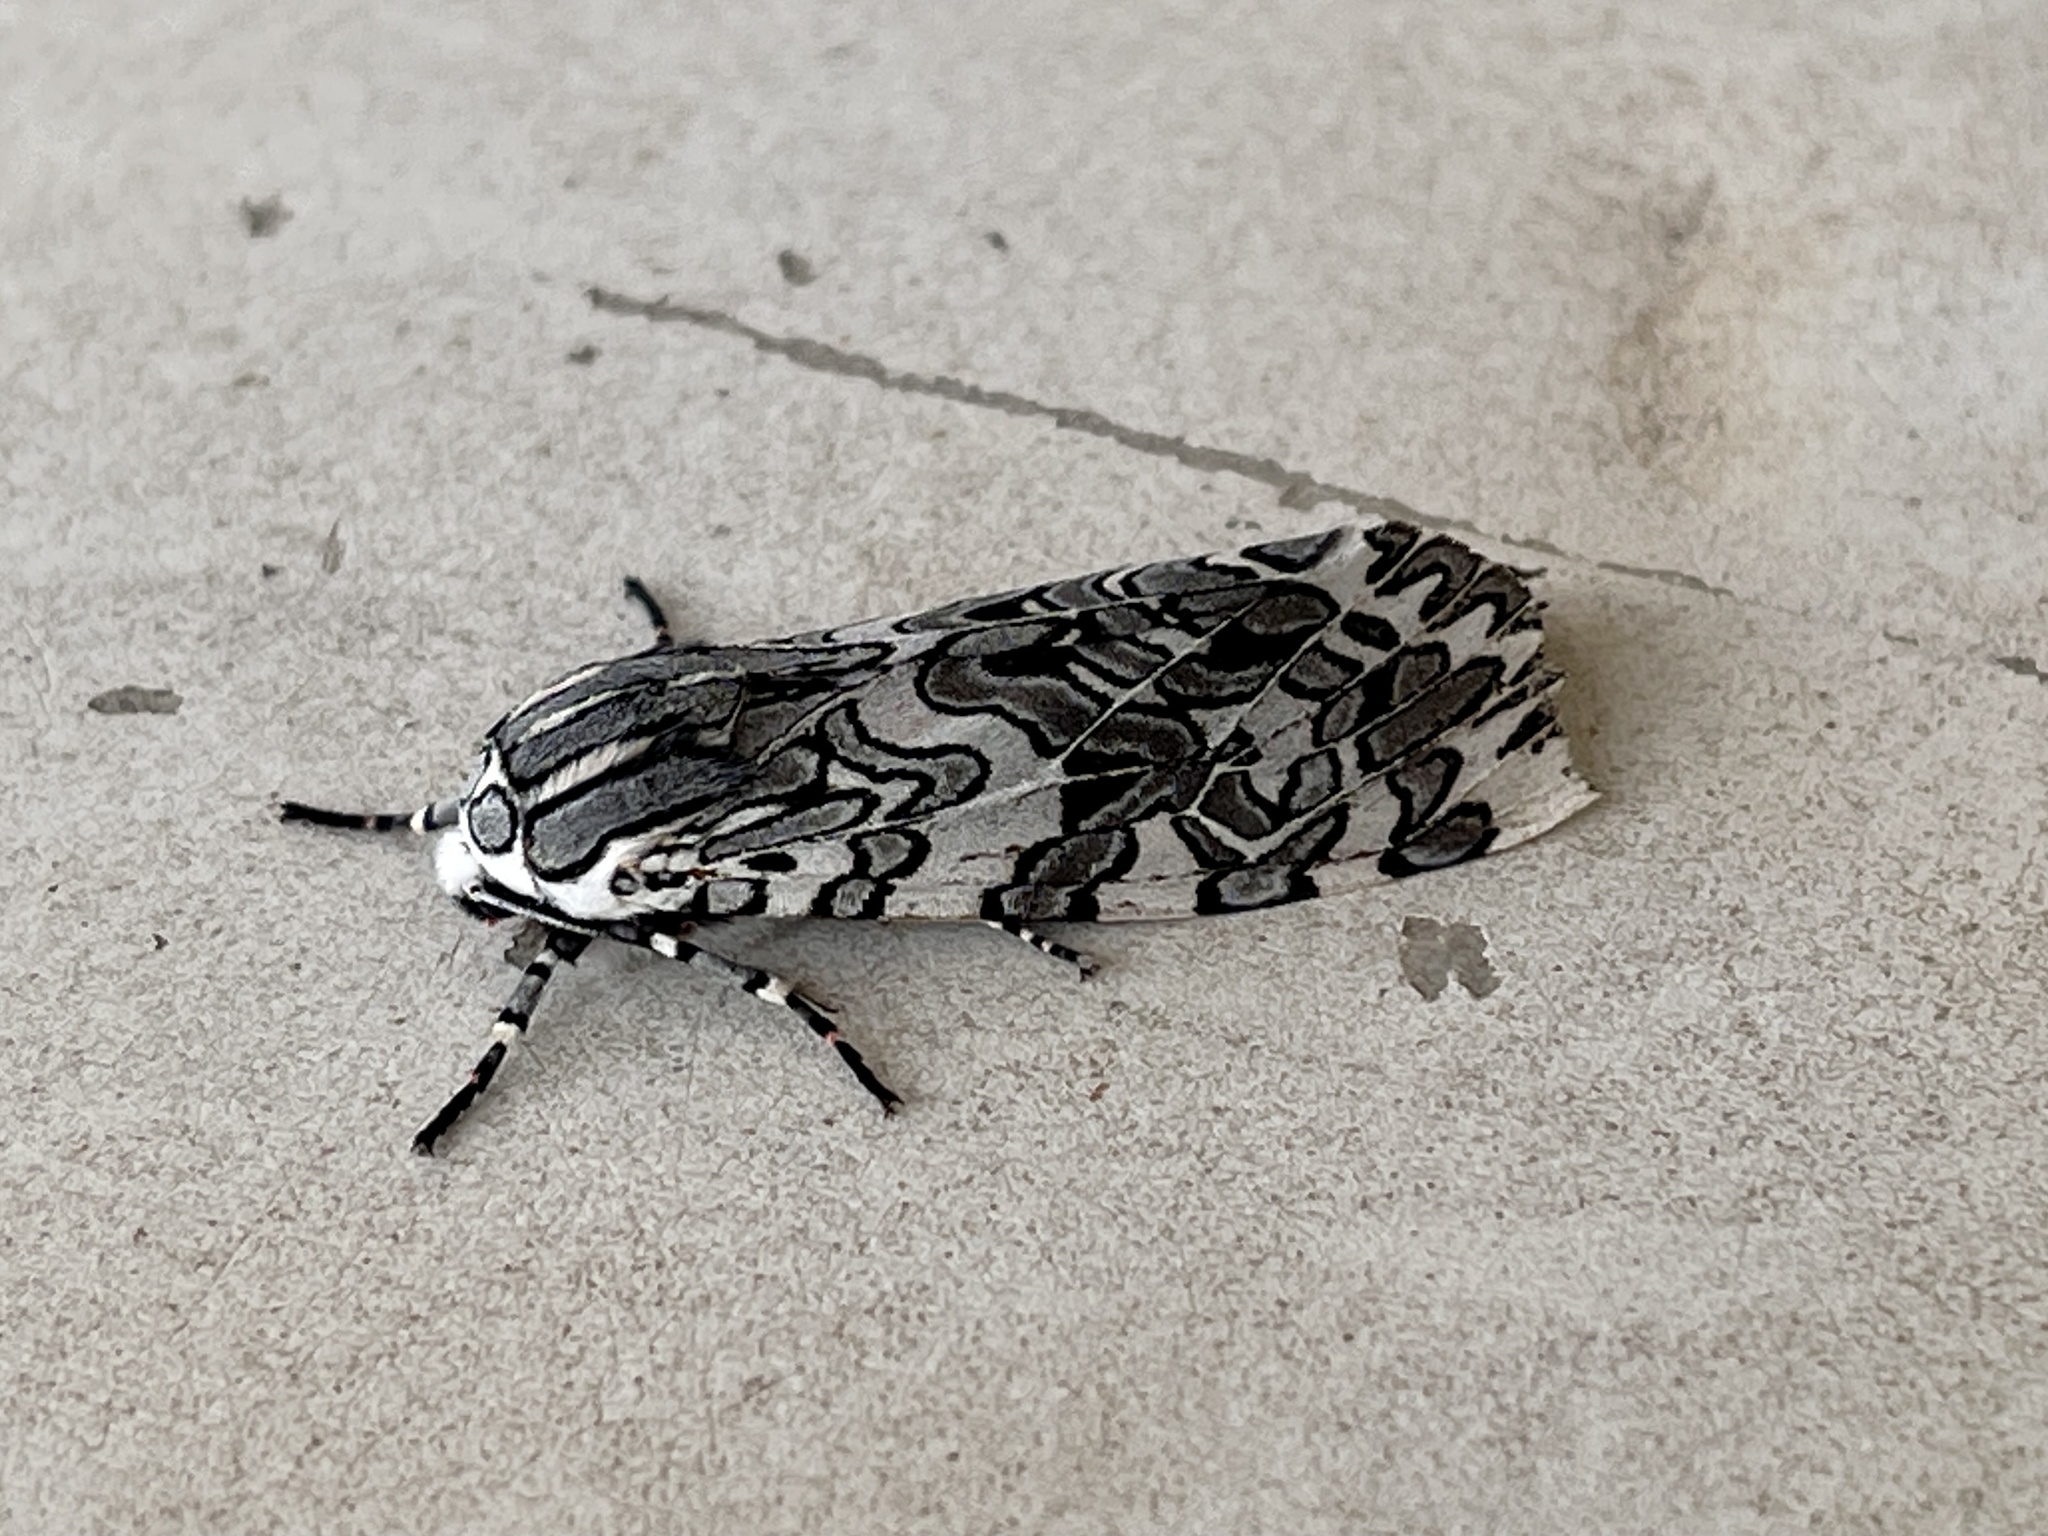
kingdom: Animalia
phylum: Arthropoda
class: Insecta
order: Lepidoptera
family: Erebidae
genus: Arachnis
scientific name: Arachnis picta
